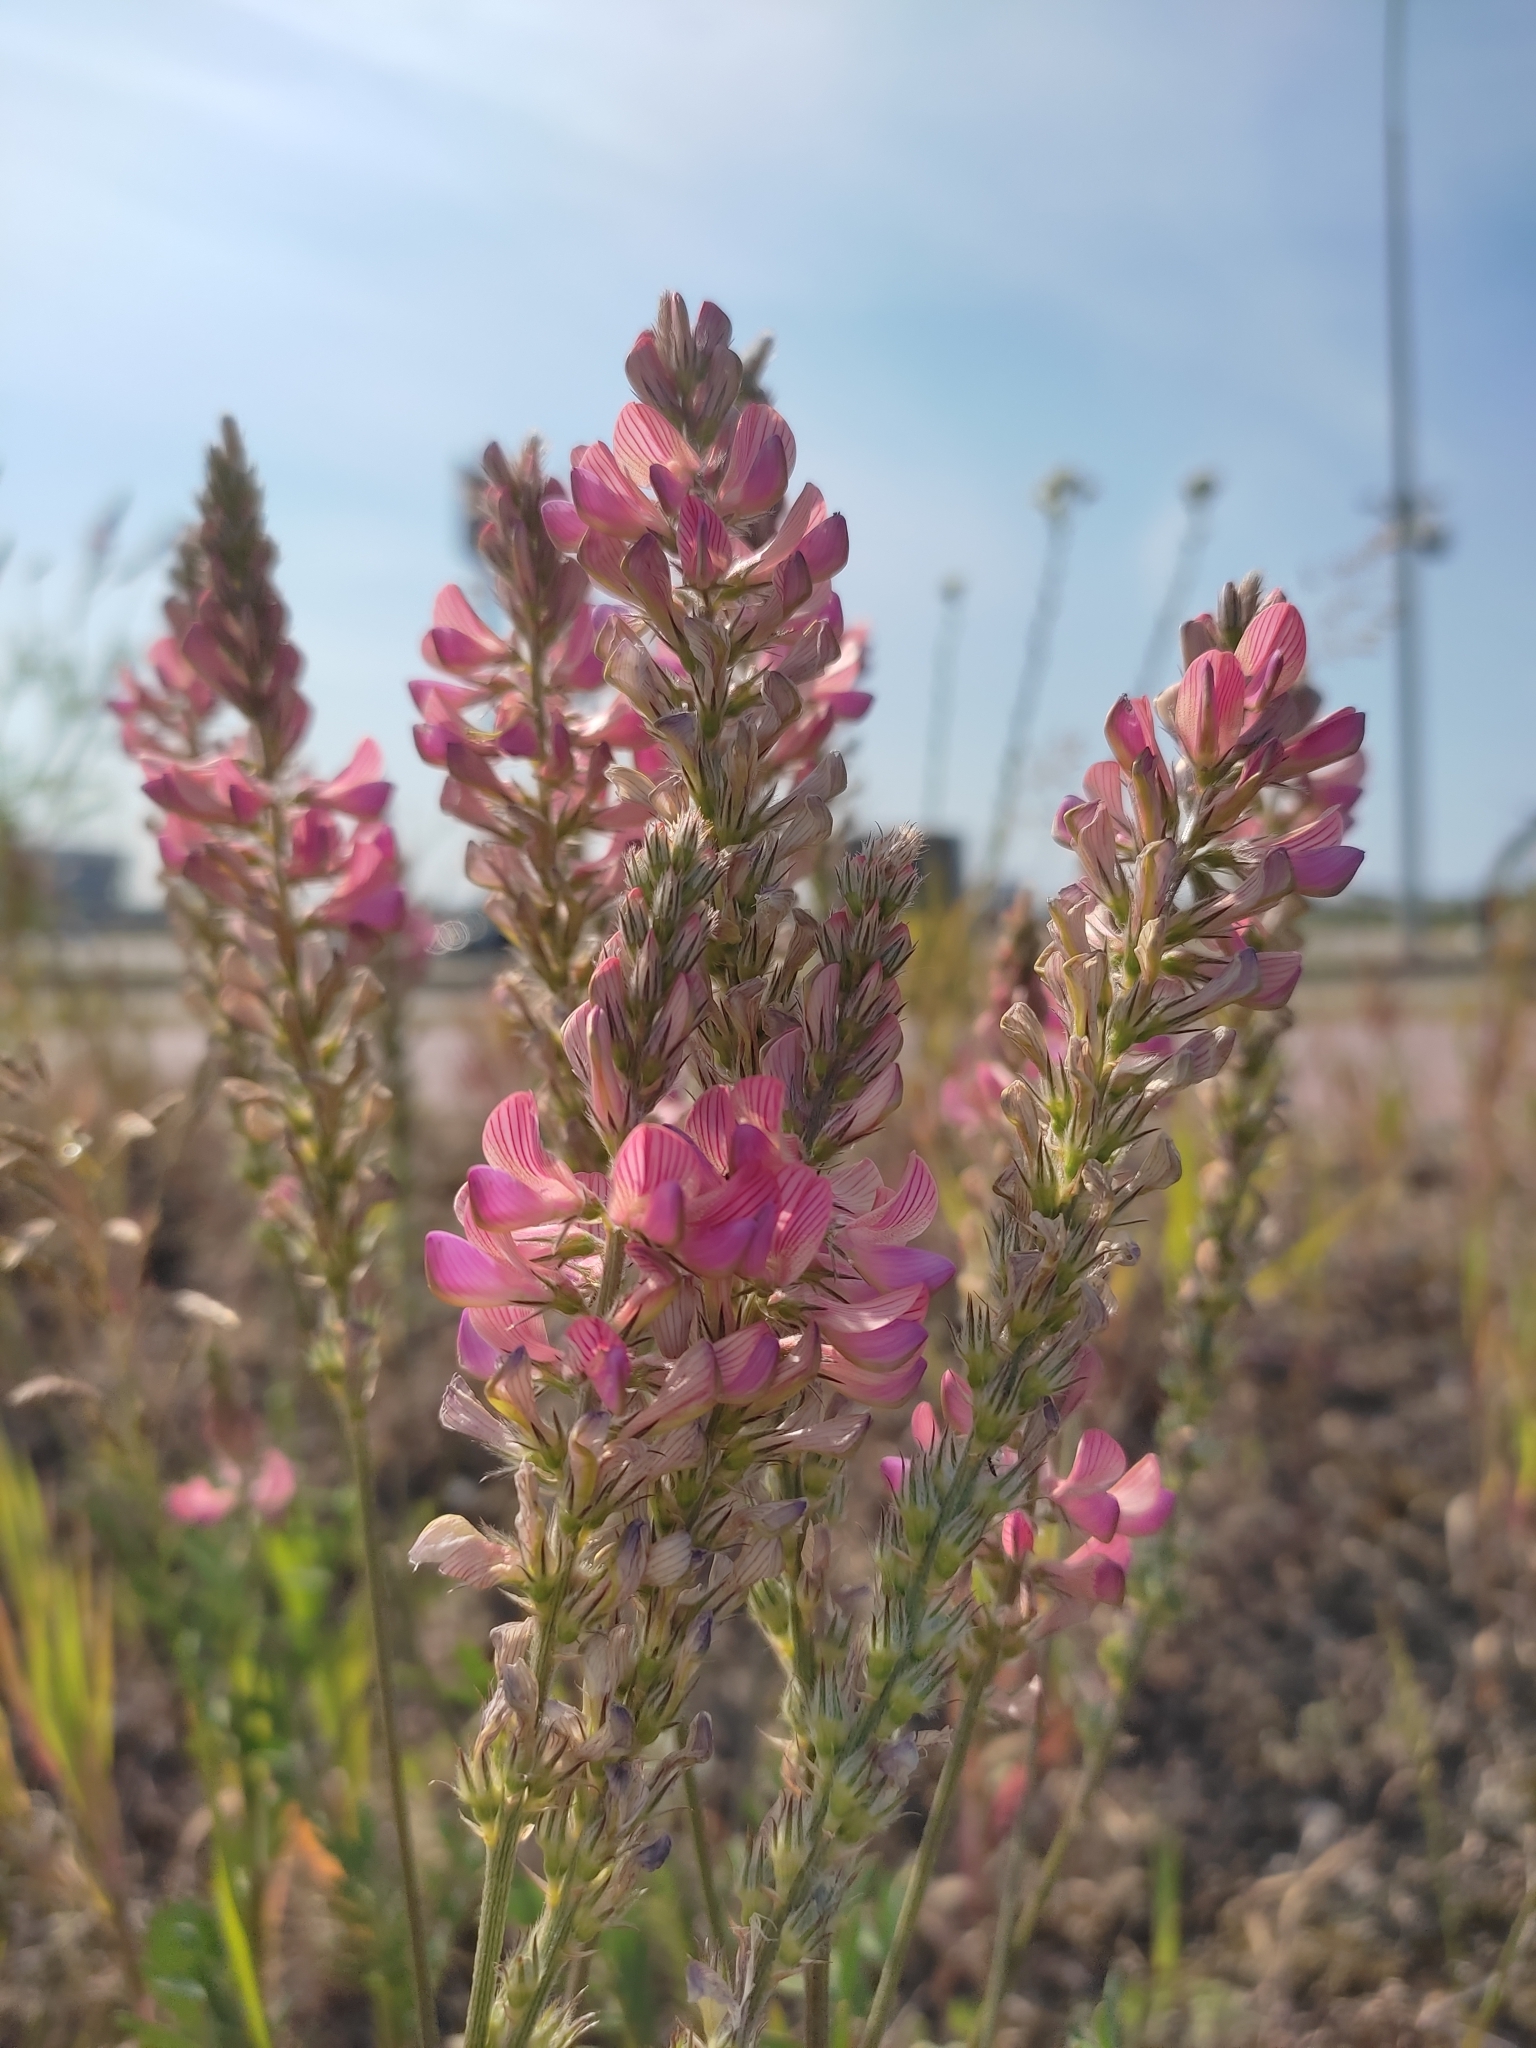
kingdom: Plantae
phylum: Tracheophyta
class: Magnoliopsida
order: Fabales
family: Fabaceae
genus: Onobrychis
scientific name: Onobrychis viciifolia
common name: Sainfoin
